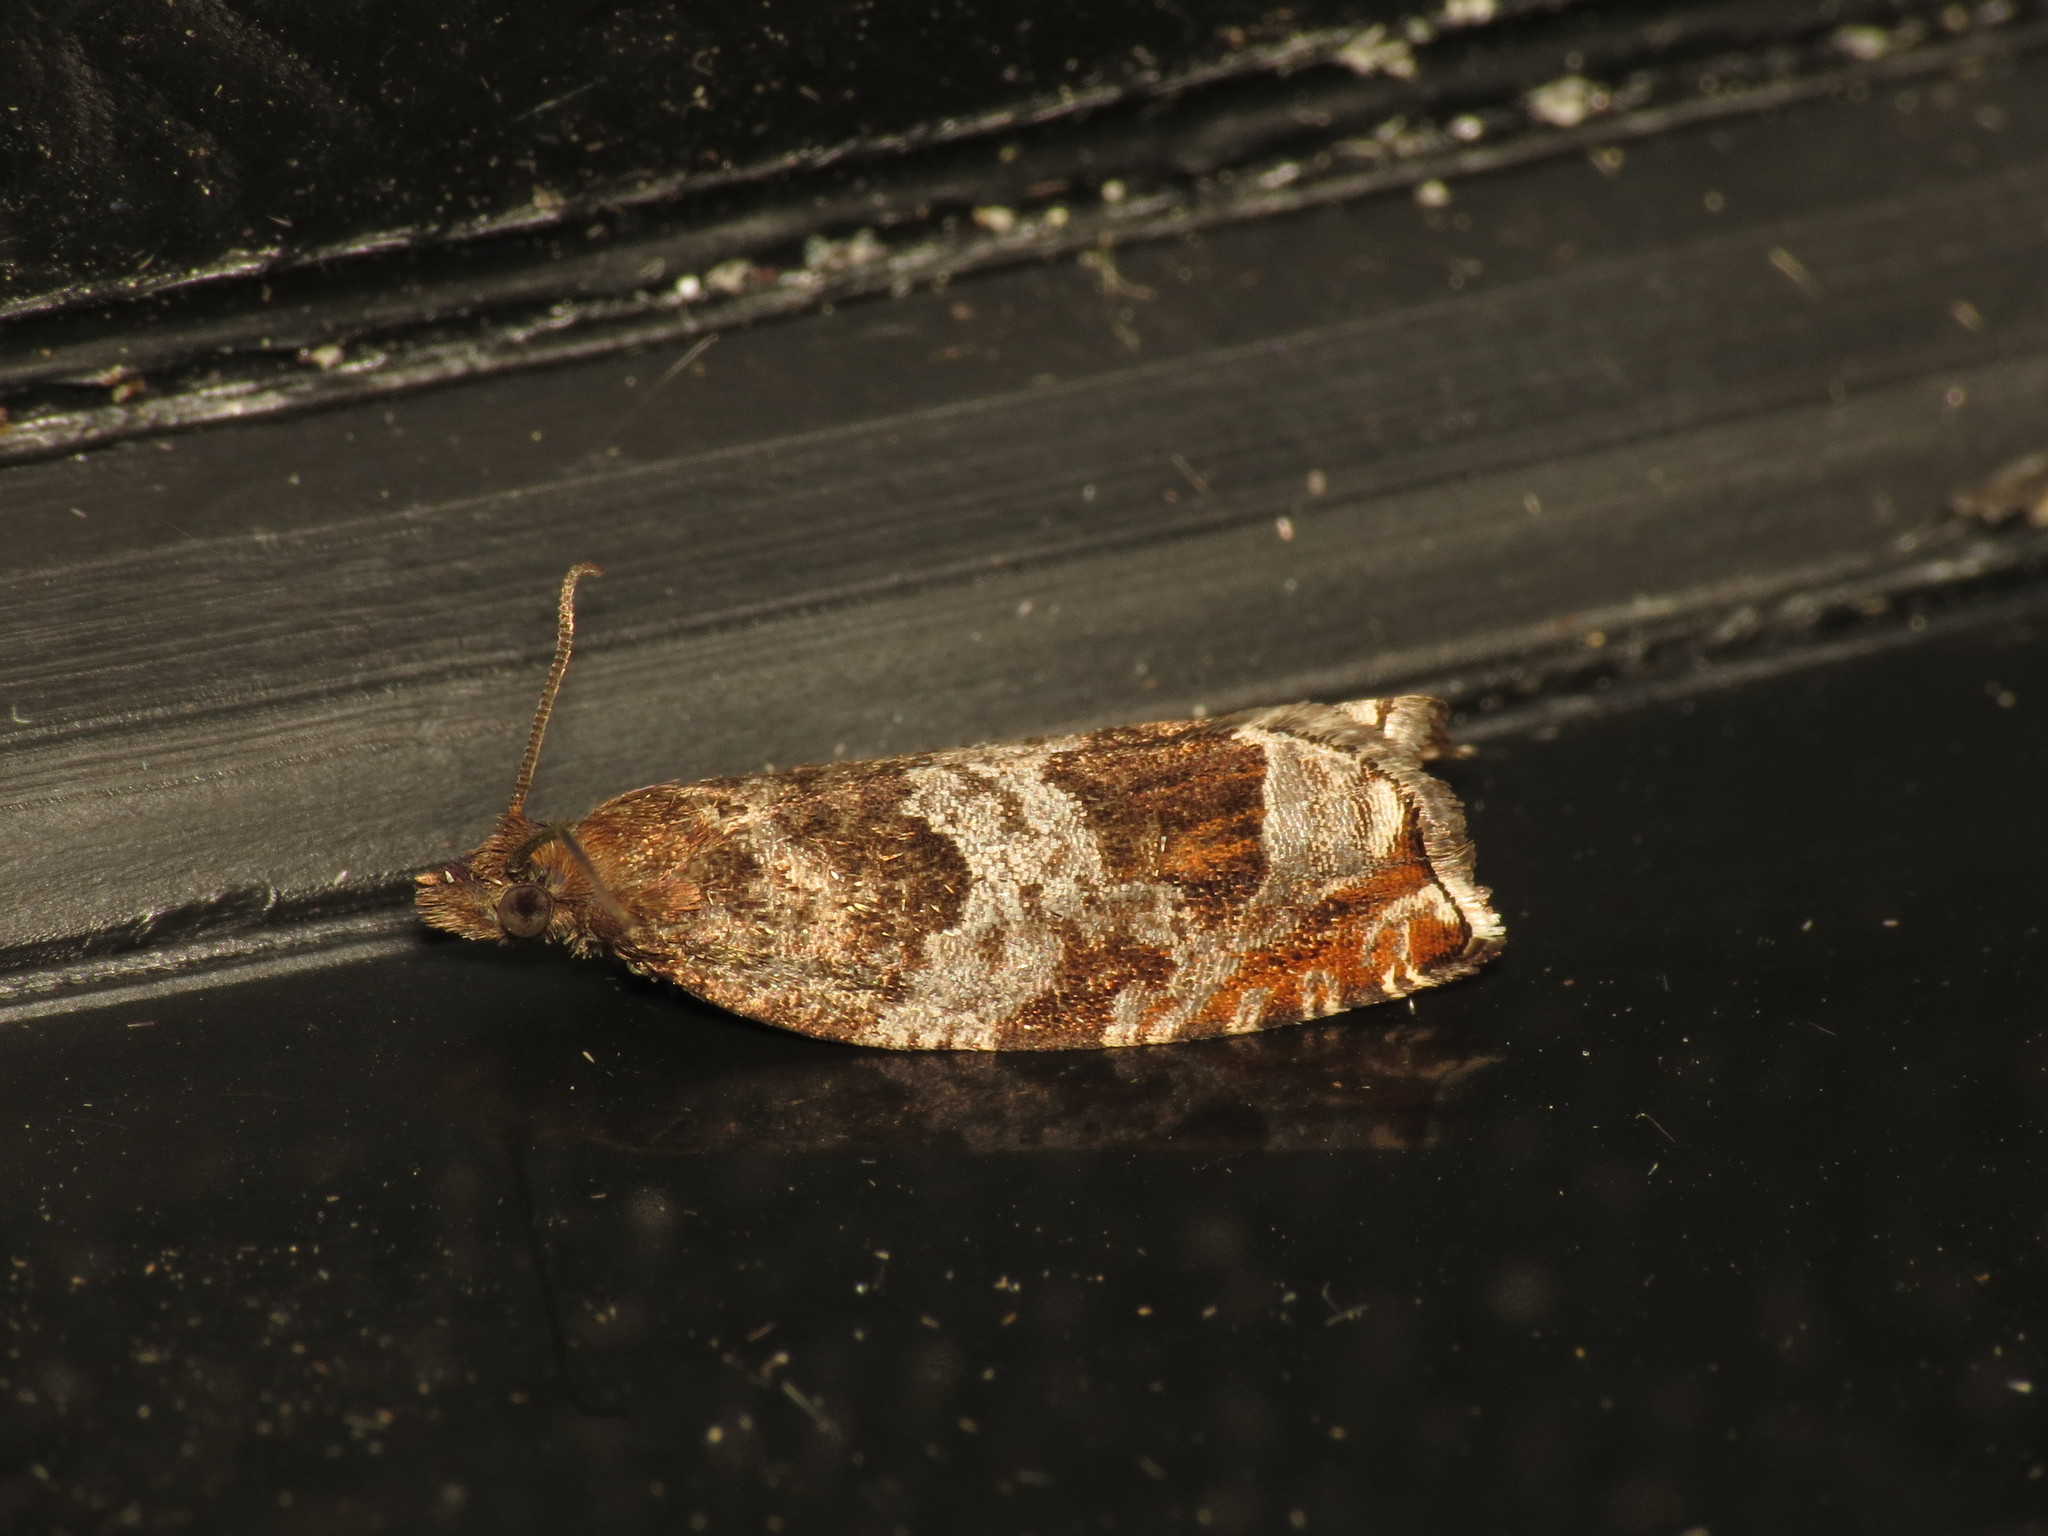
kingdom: Animalia
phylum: Arthropoda
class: Insecta
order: Lepidoptera
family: Tortricidae
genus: Ancylis
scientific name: Ancylis achatana
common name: Triangle-marked roller
